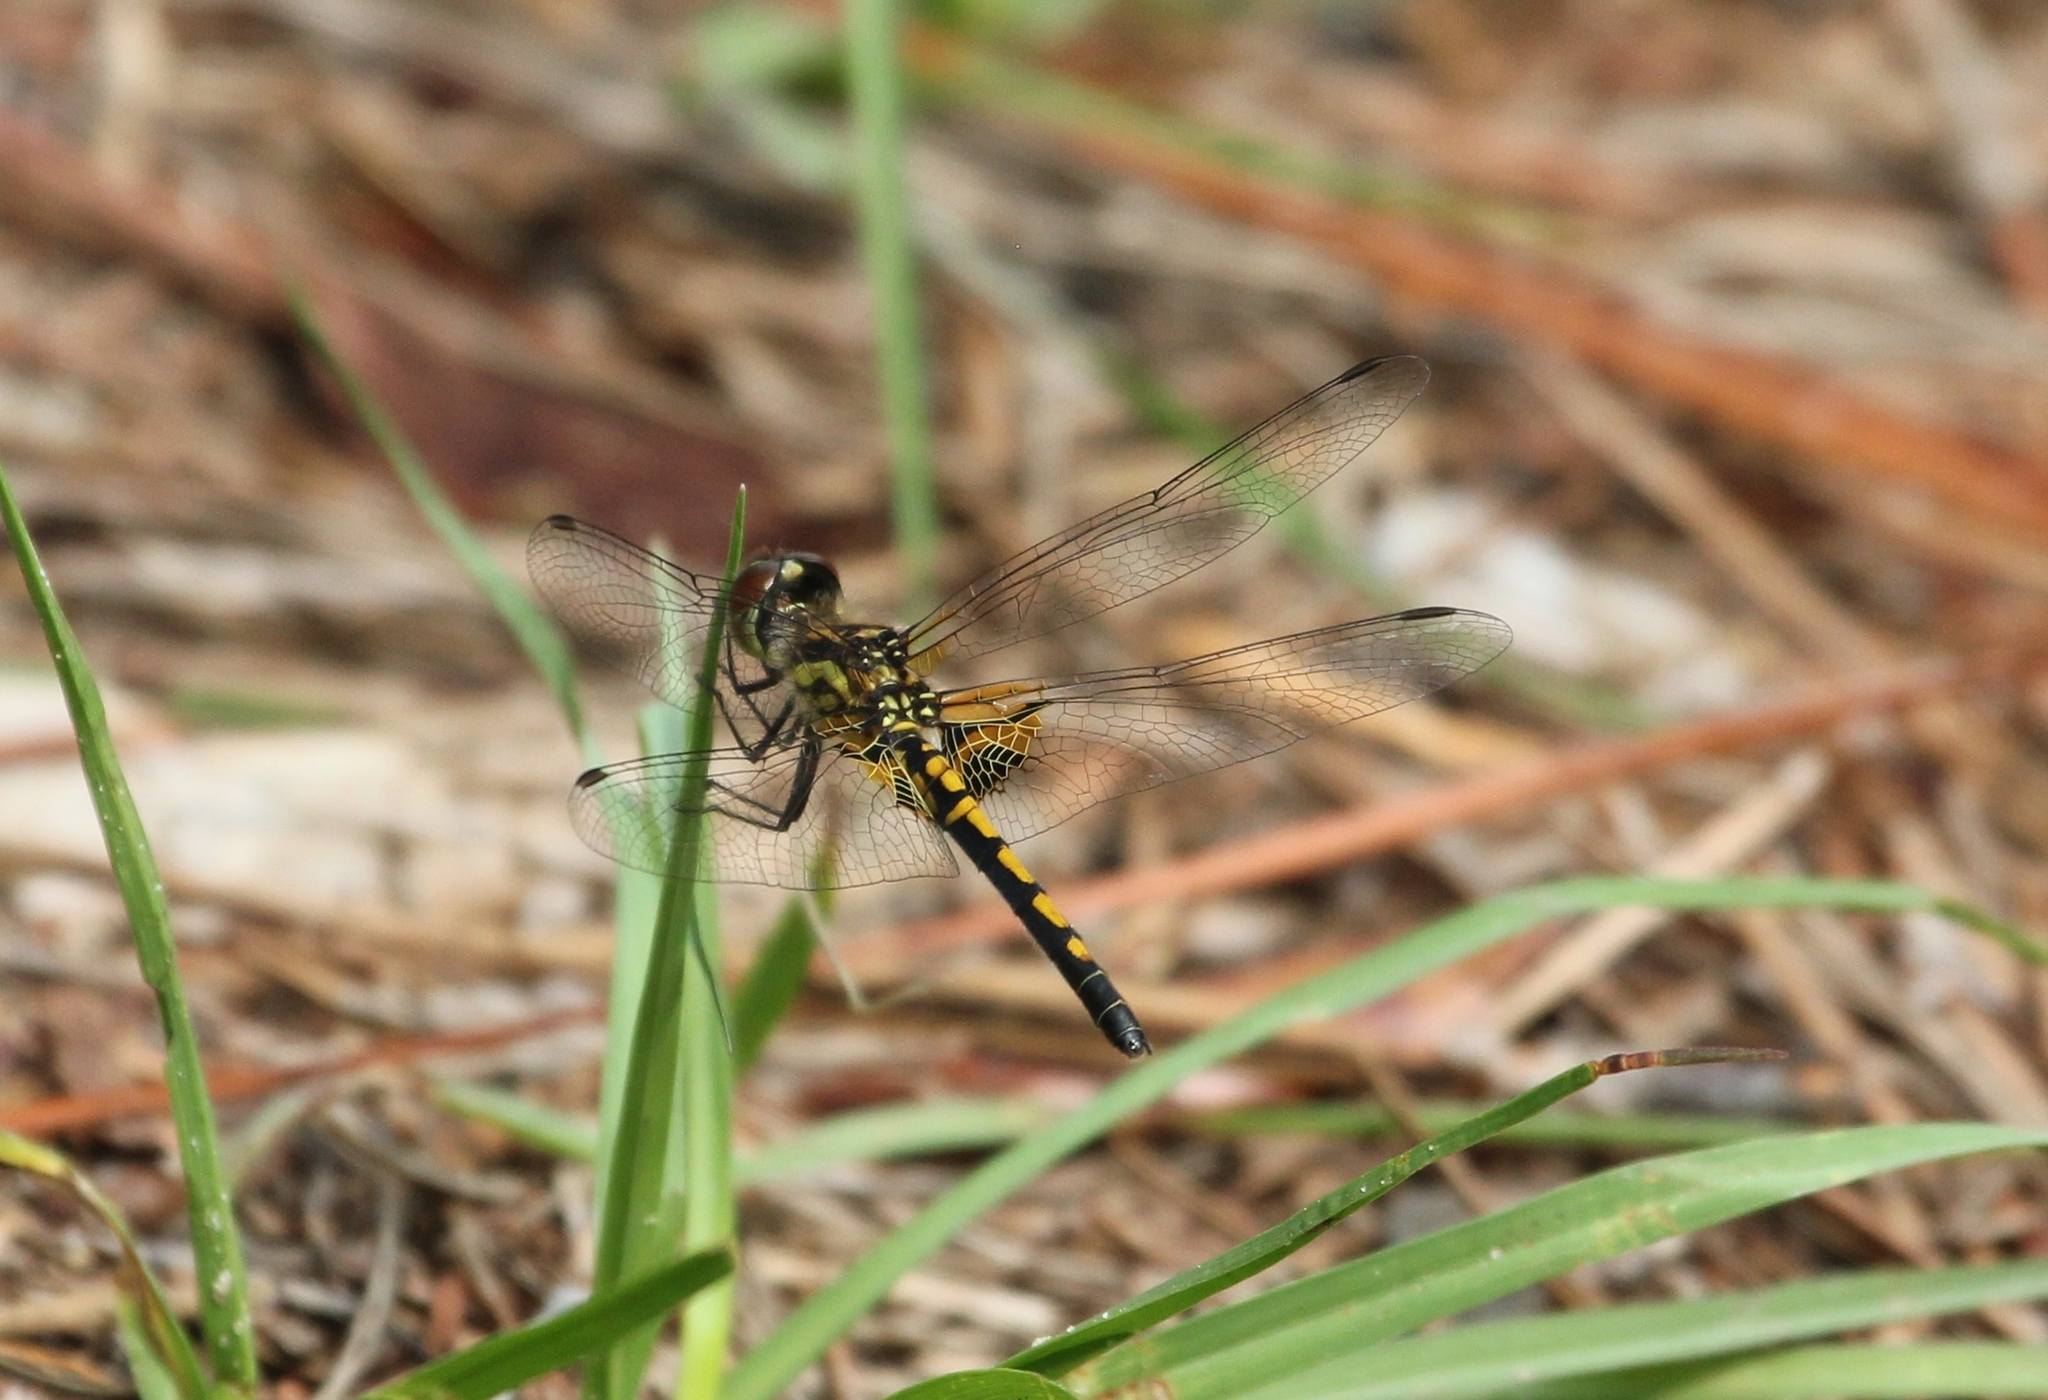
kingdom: Animalia
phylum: Arthropoda
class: Insecta
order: Odonata
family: Libellulidae
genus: Celithemis
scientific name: Celithemis ornata
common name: Ornate pennant
